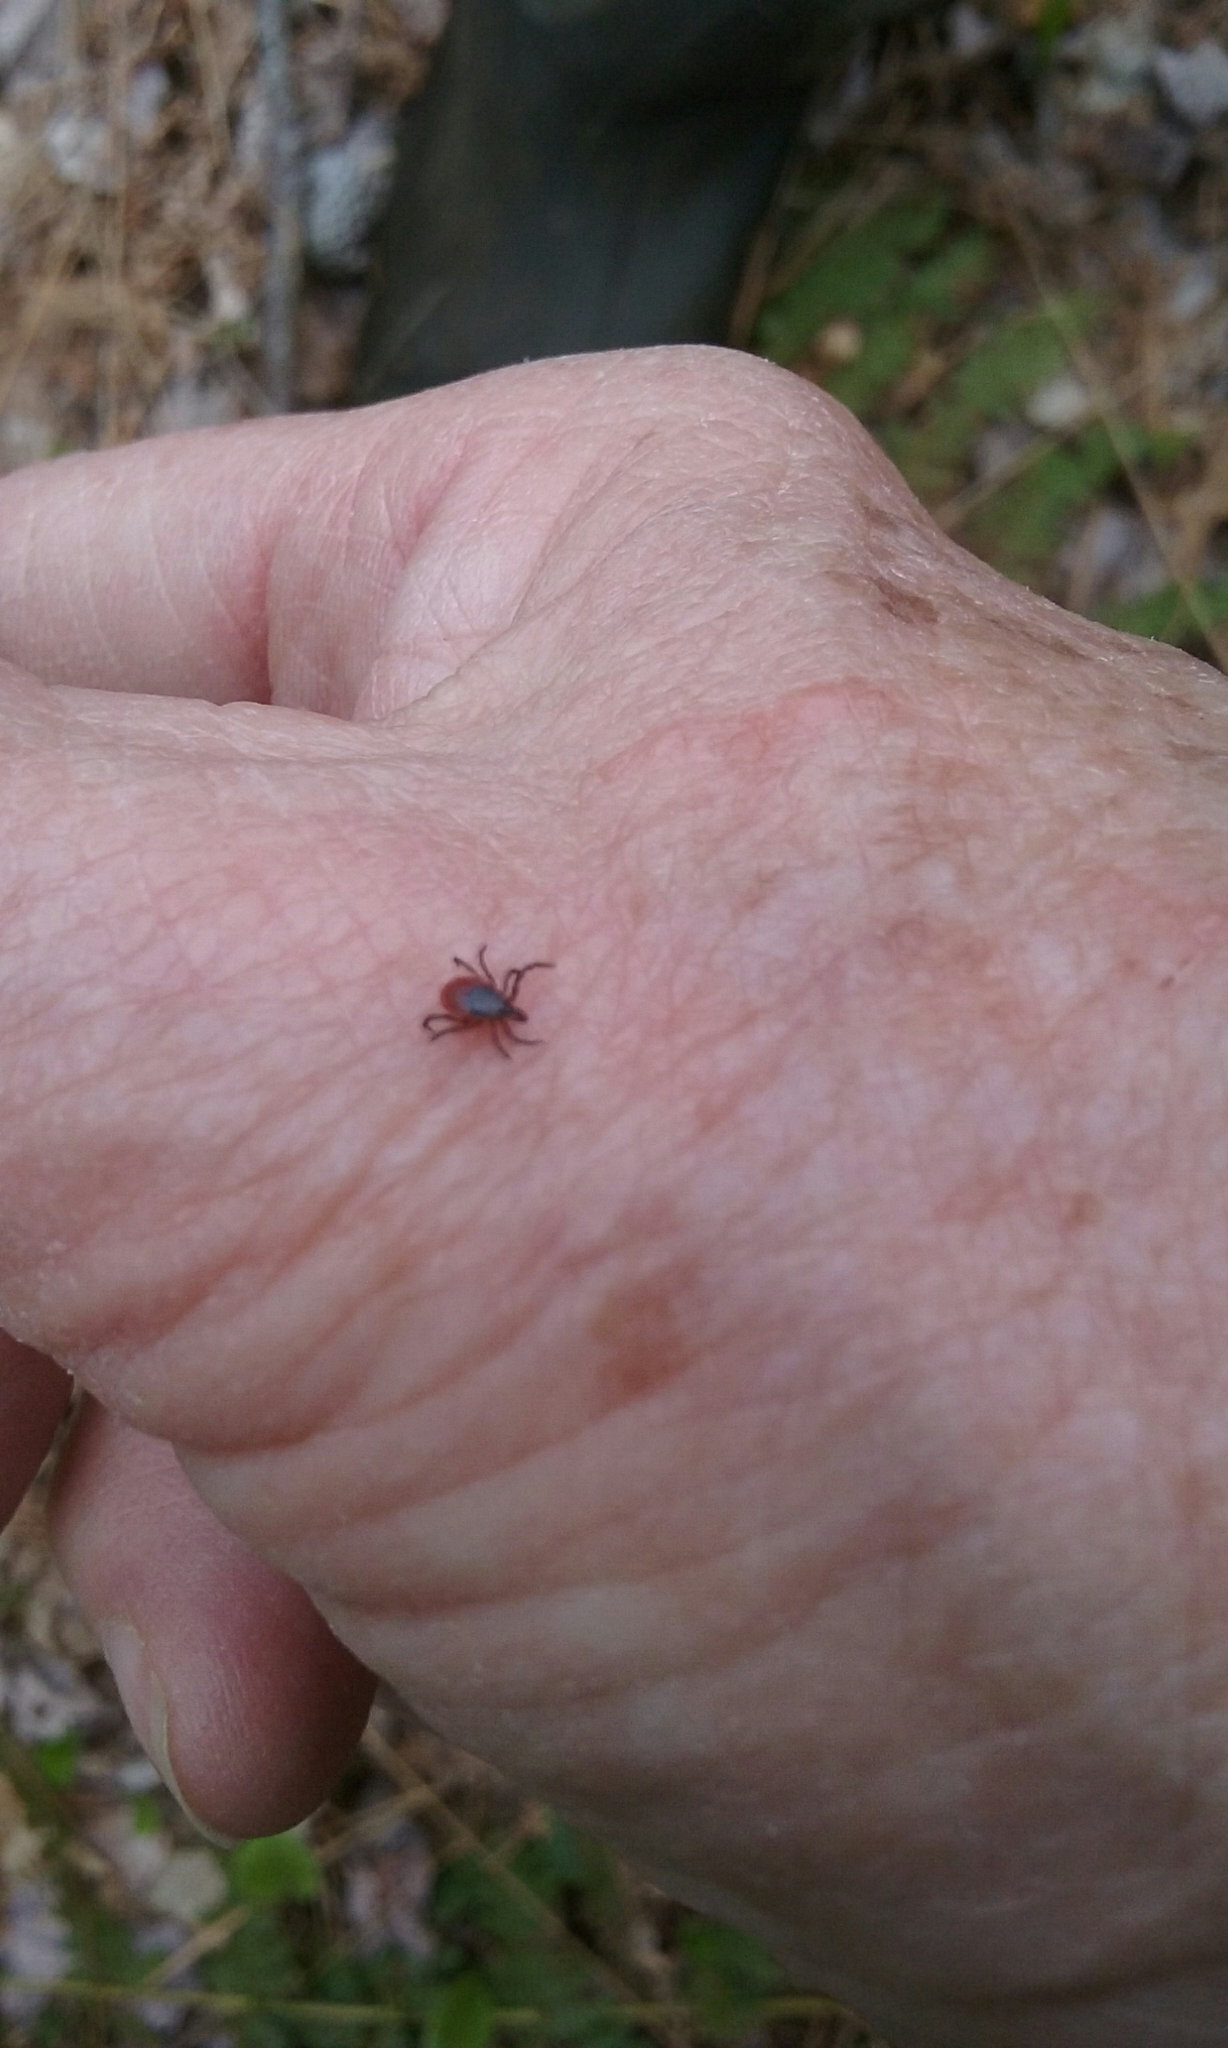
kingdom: Animalia
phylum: Arthropoda
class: Arachnida
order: Ixodida
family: Ixodidae
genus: Ixodes
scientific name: Ixodes scapularis
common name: Black legged tick
